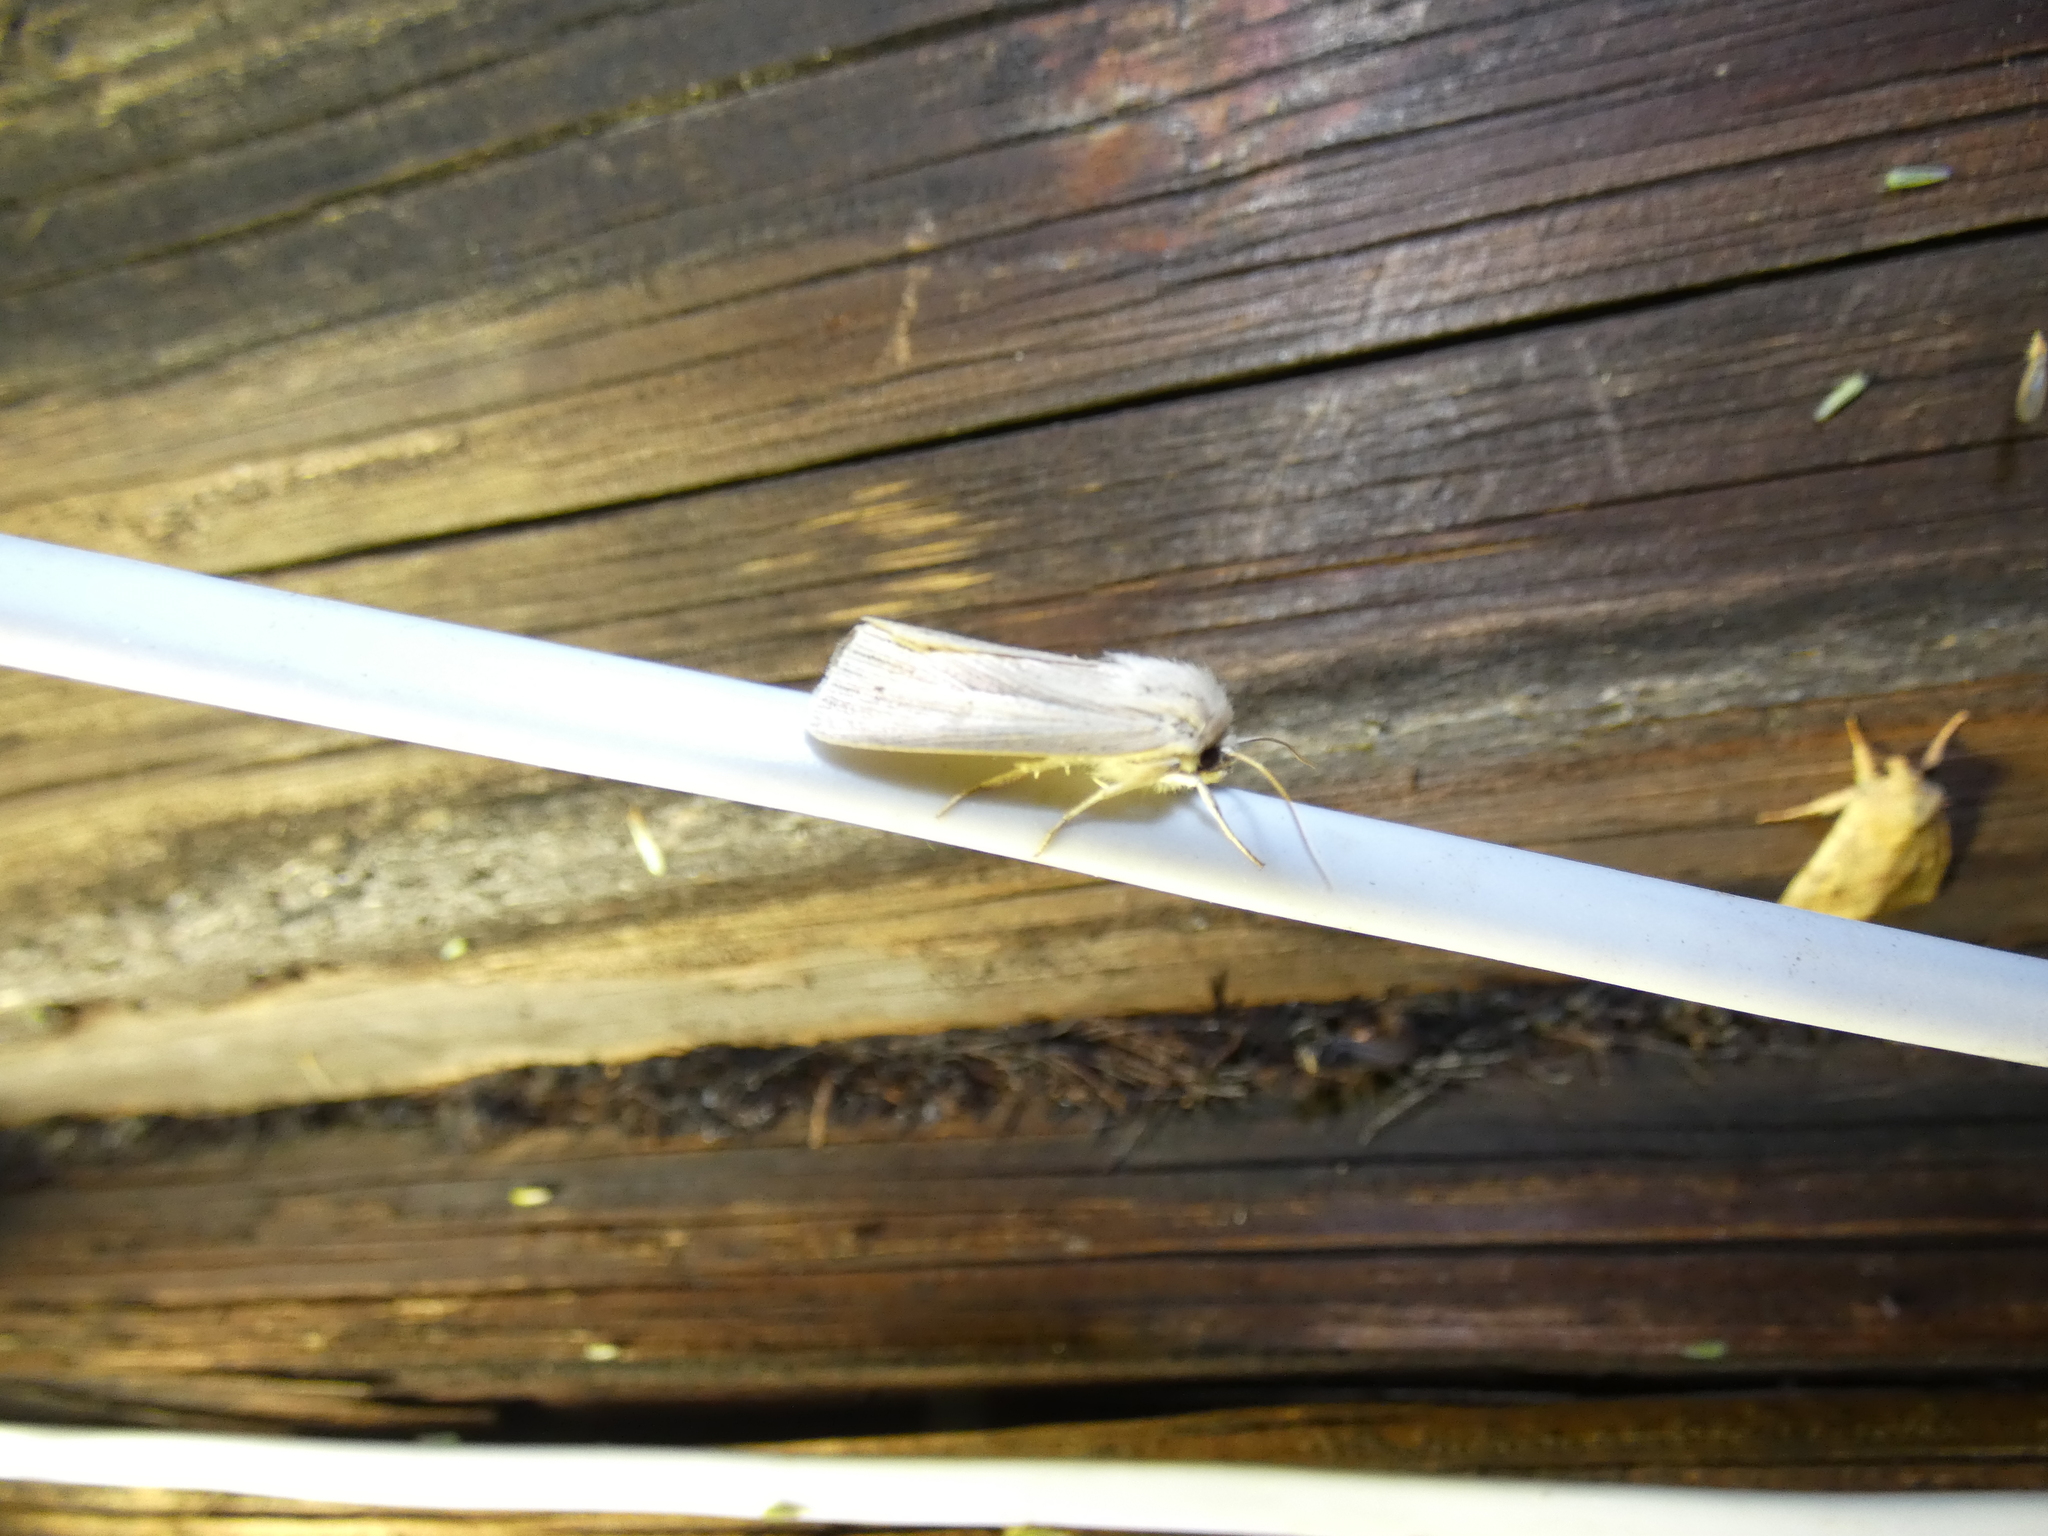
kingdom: Animalia
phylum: Arthropoda
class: Insecta
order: Lepidoptera
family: Noctuidae
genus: Mythimna
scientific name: Mythimna impura
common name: Smoky wainscot
